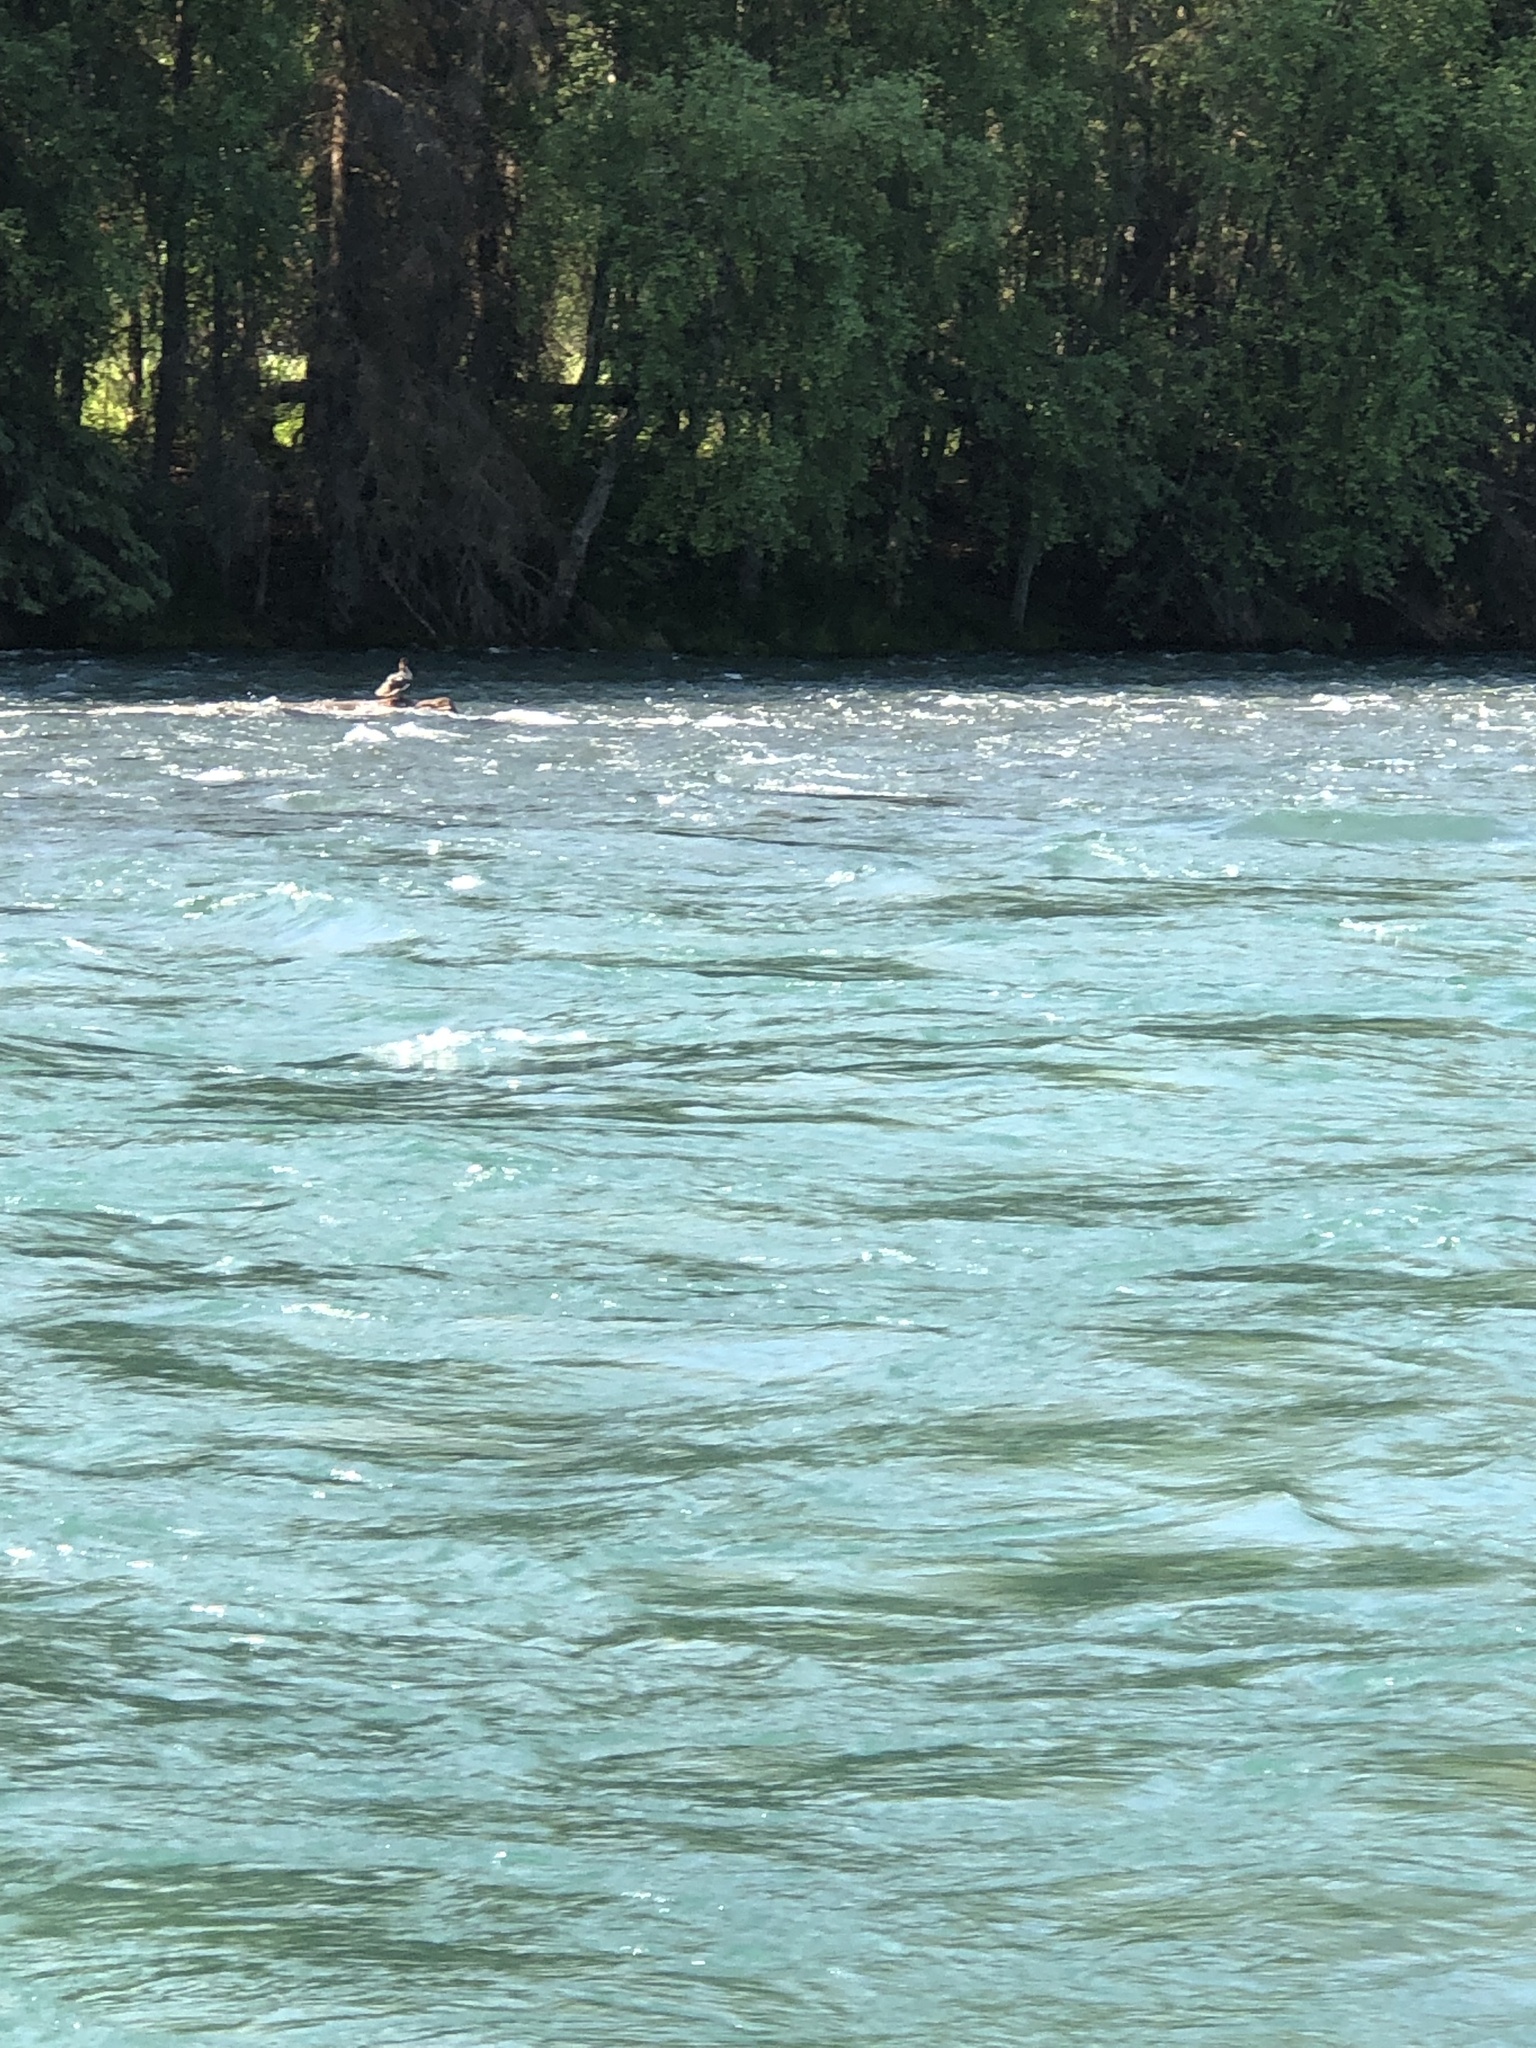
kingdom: Animalia
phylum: Chordata
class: Aves
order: Anseriformes
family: Anatidae
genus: Mergus
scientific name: Mergus merganser
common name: Common merganser
